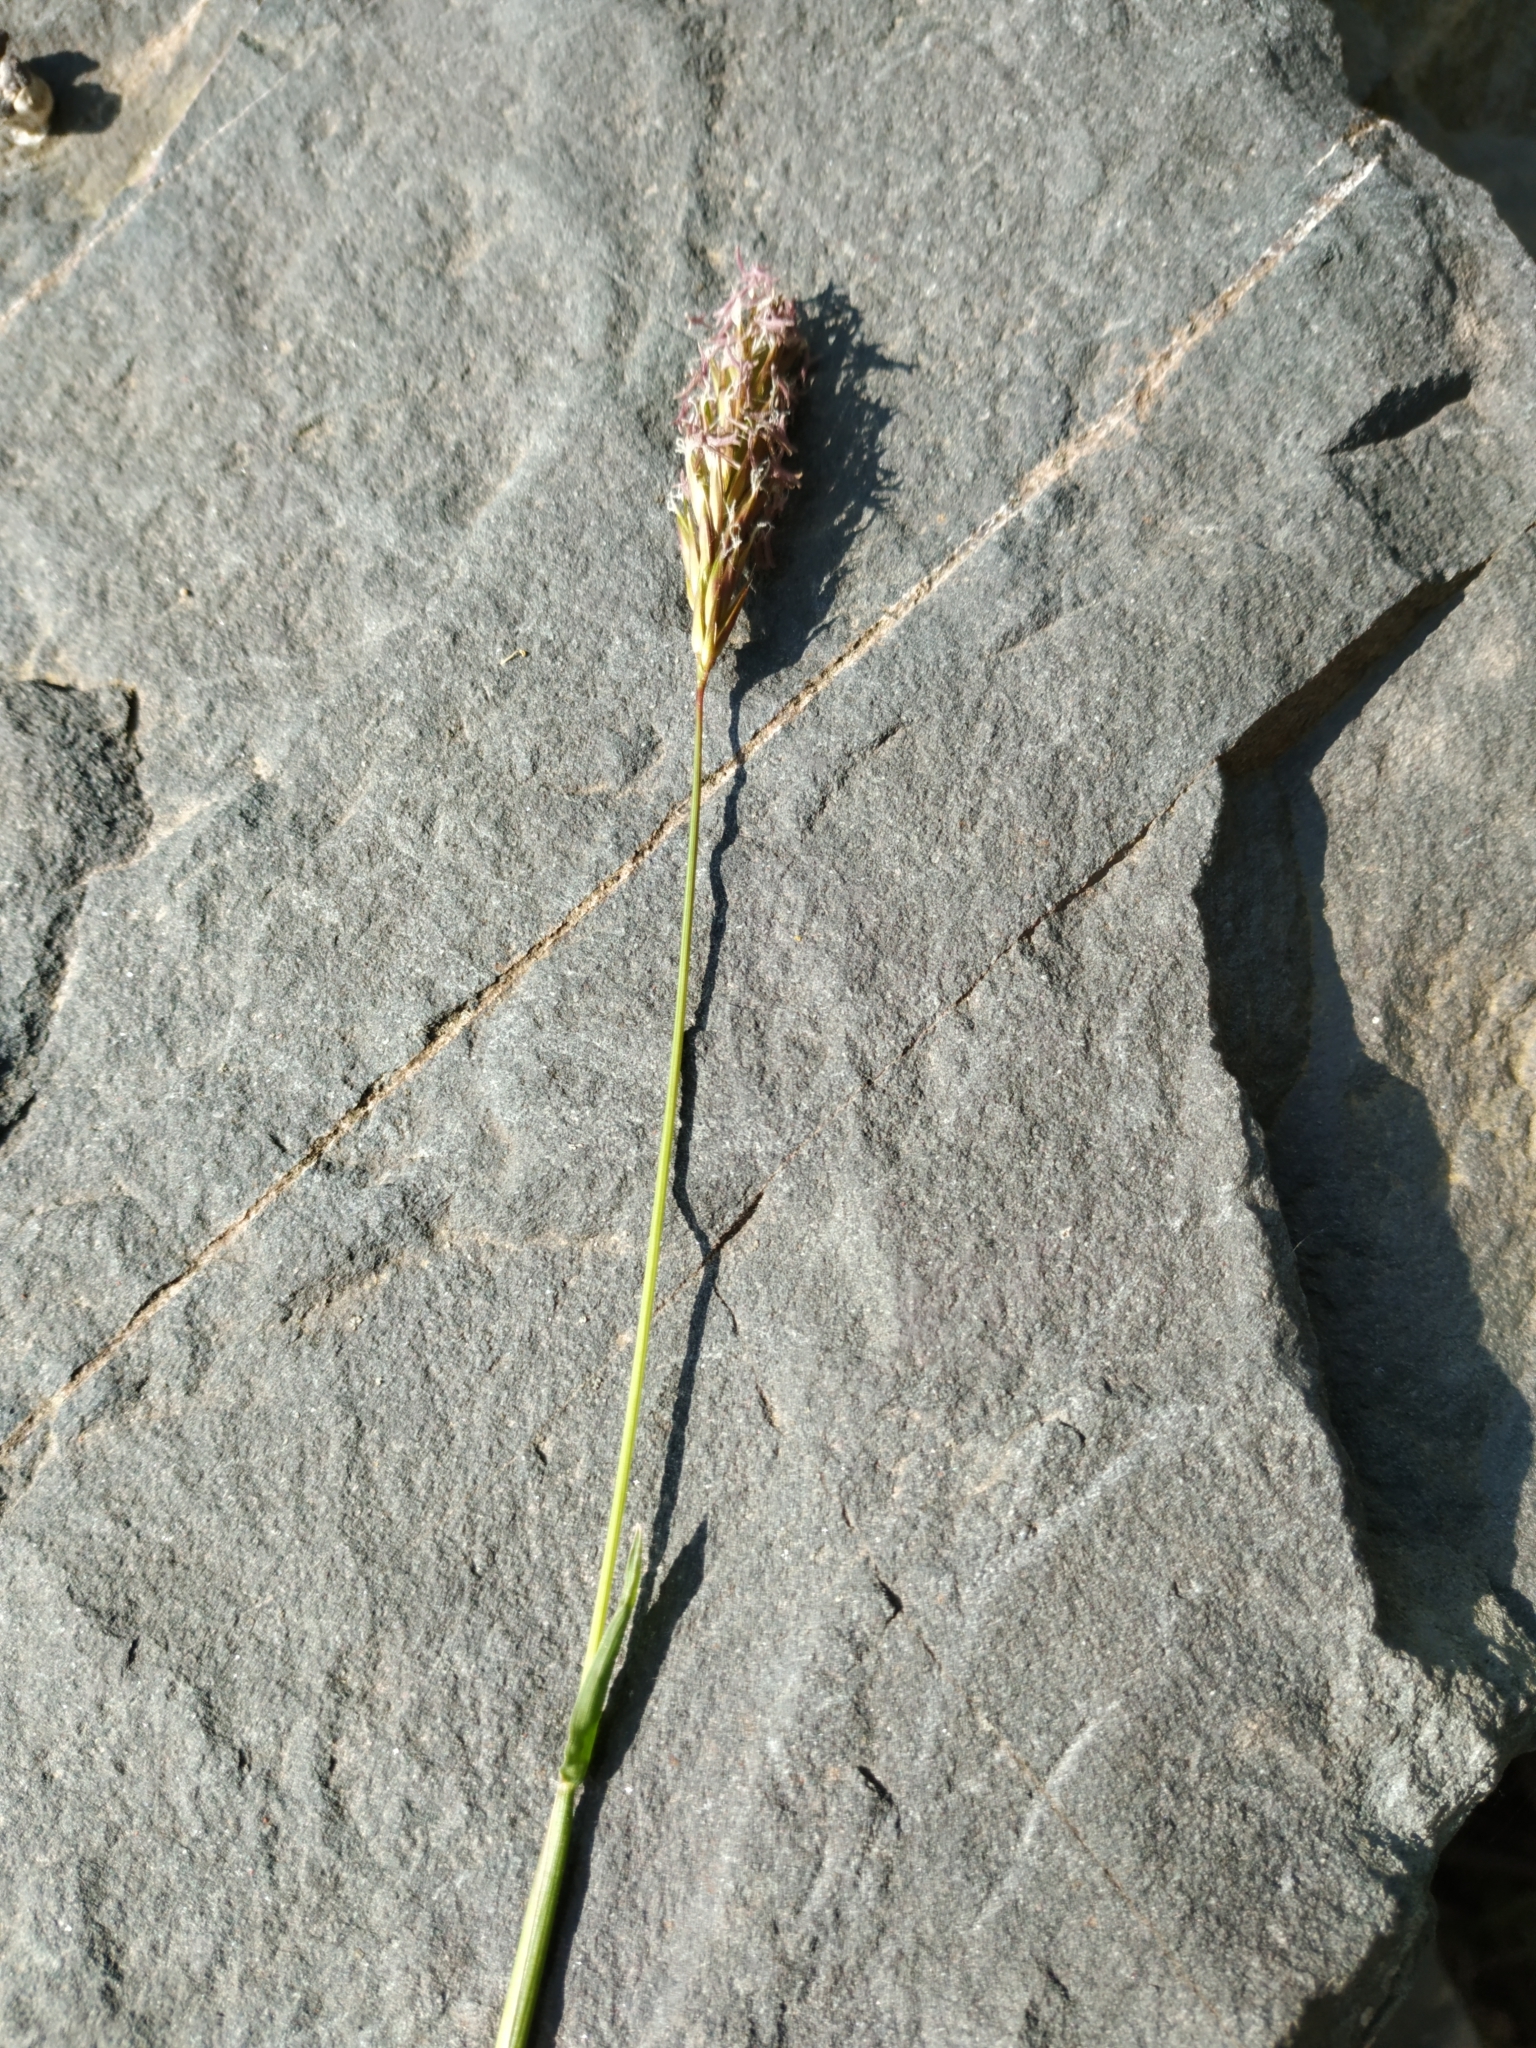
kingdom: Plantae
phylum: Tracheophyta
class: Liliopsida
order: Poales
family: Poaceae
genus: Anthoxanthum
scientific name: Anthoxanthum odoratum
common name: Sweet vernalgrass
